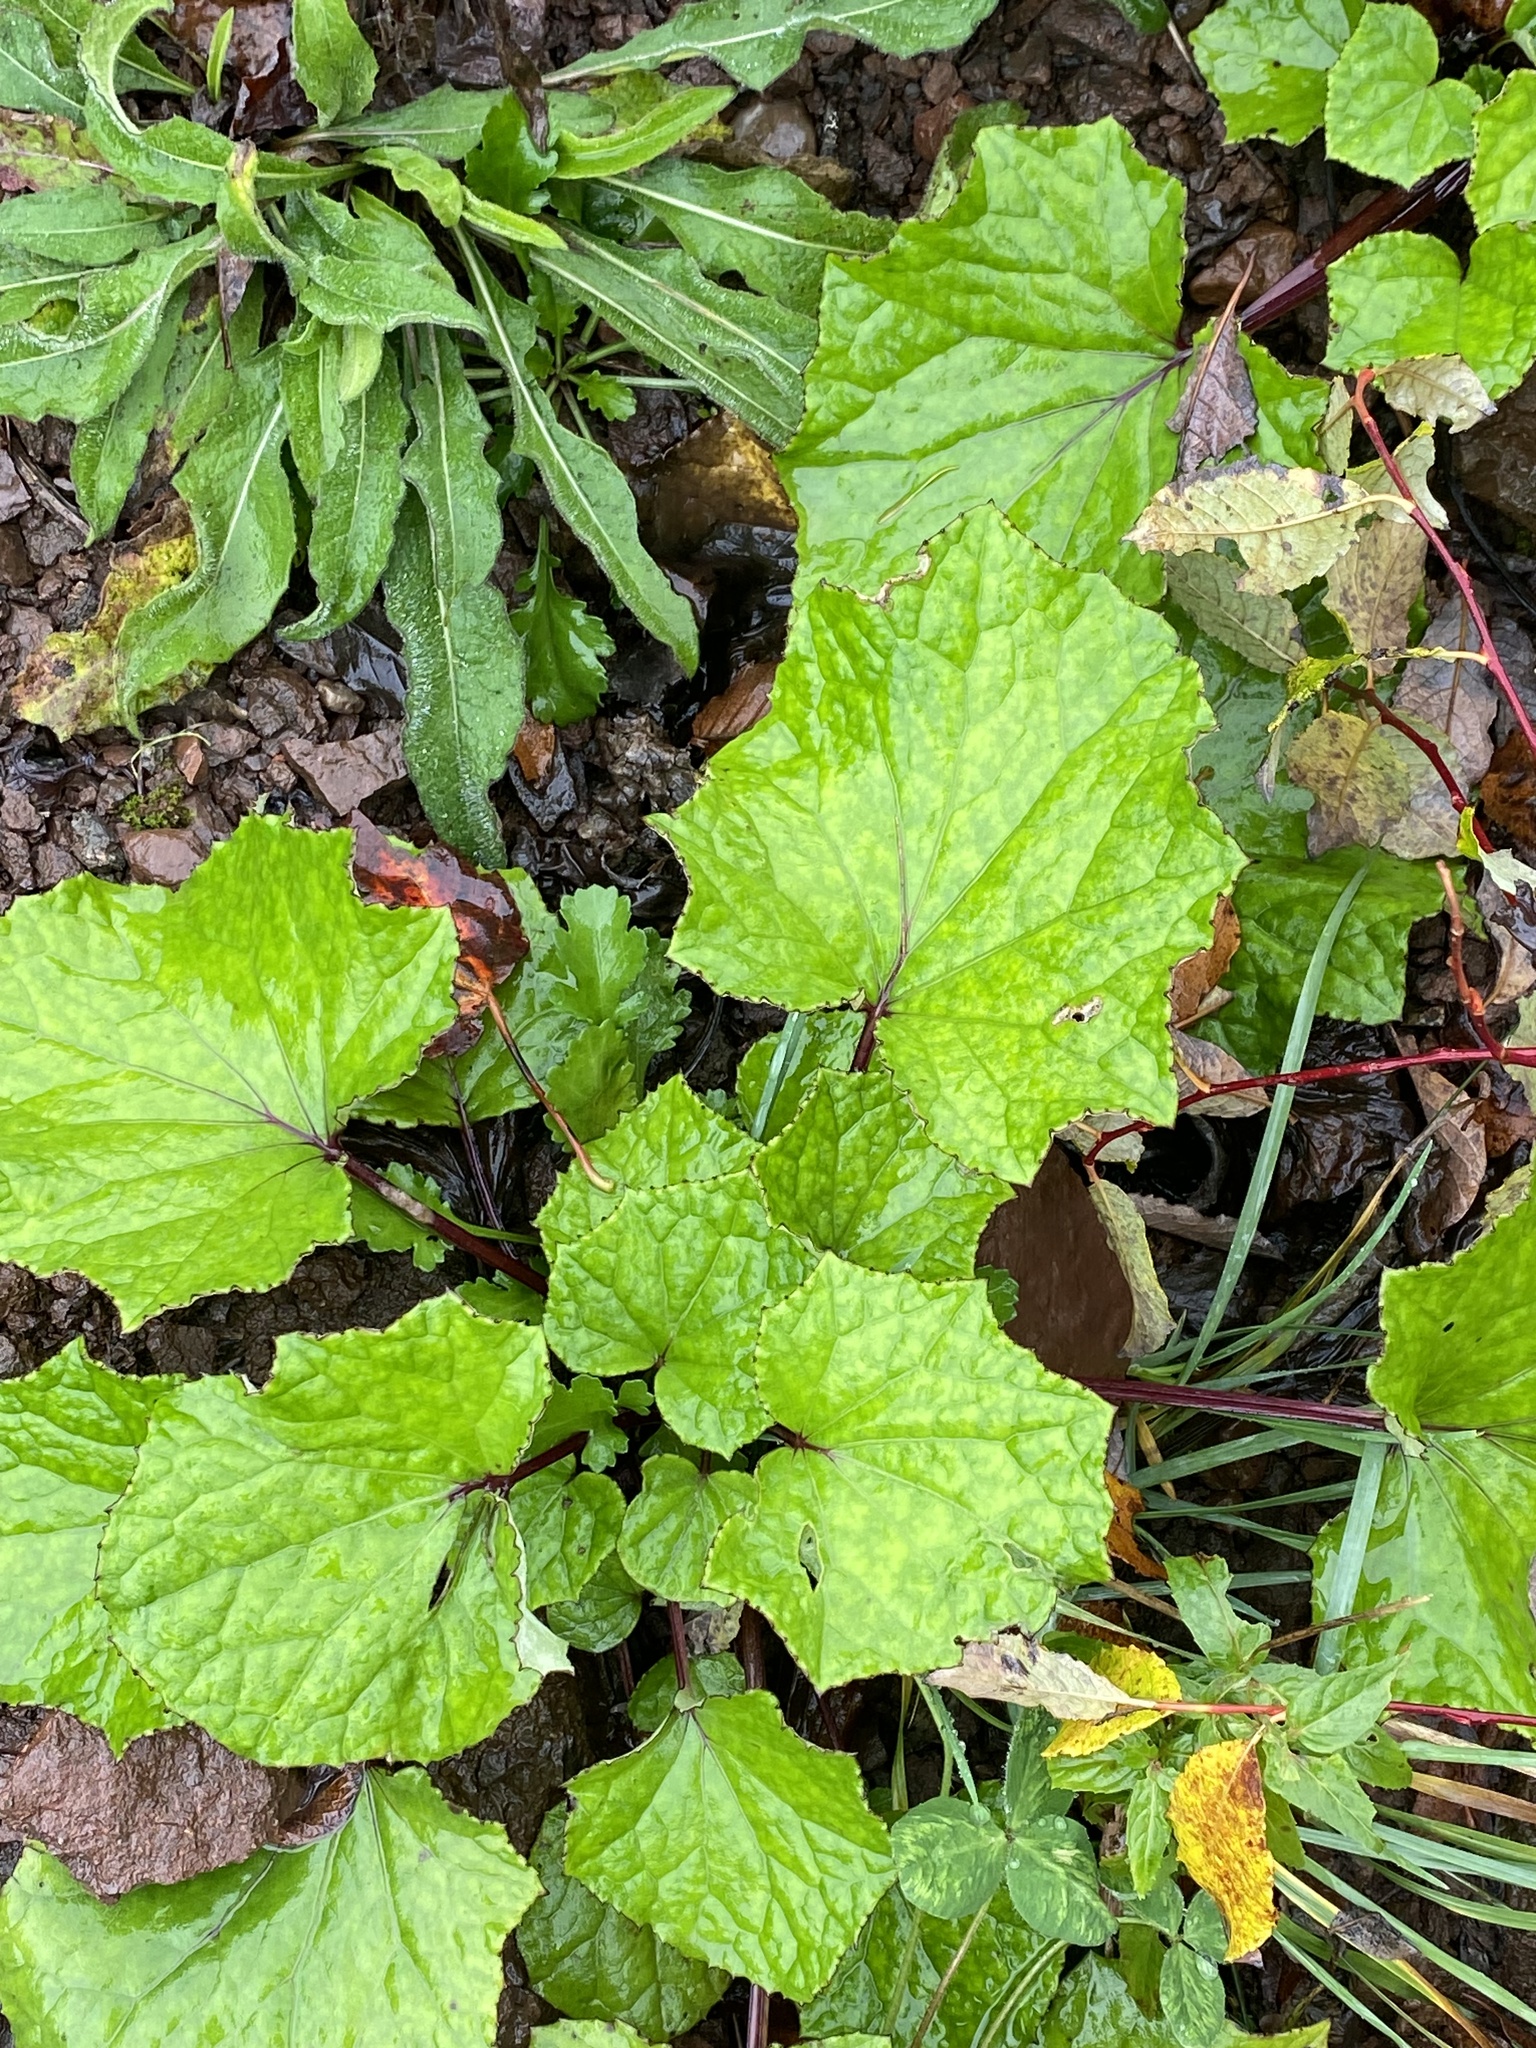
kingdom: Plantae
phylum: Tracheophyta
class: Magnoliopsida
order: Asterales
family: Asteraceae
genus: Tussilago
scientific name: Tussilago farfara
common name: Coltsfoot
